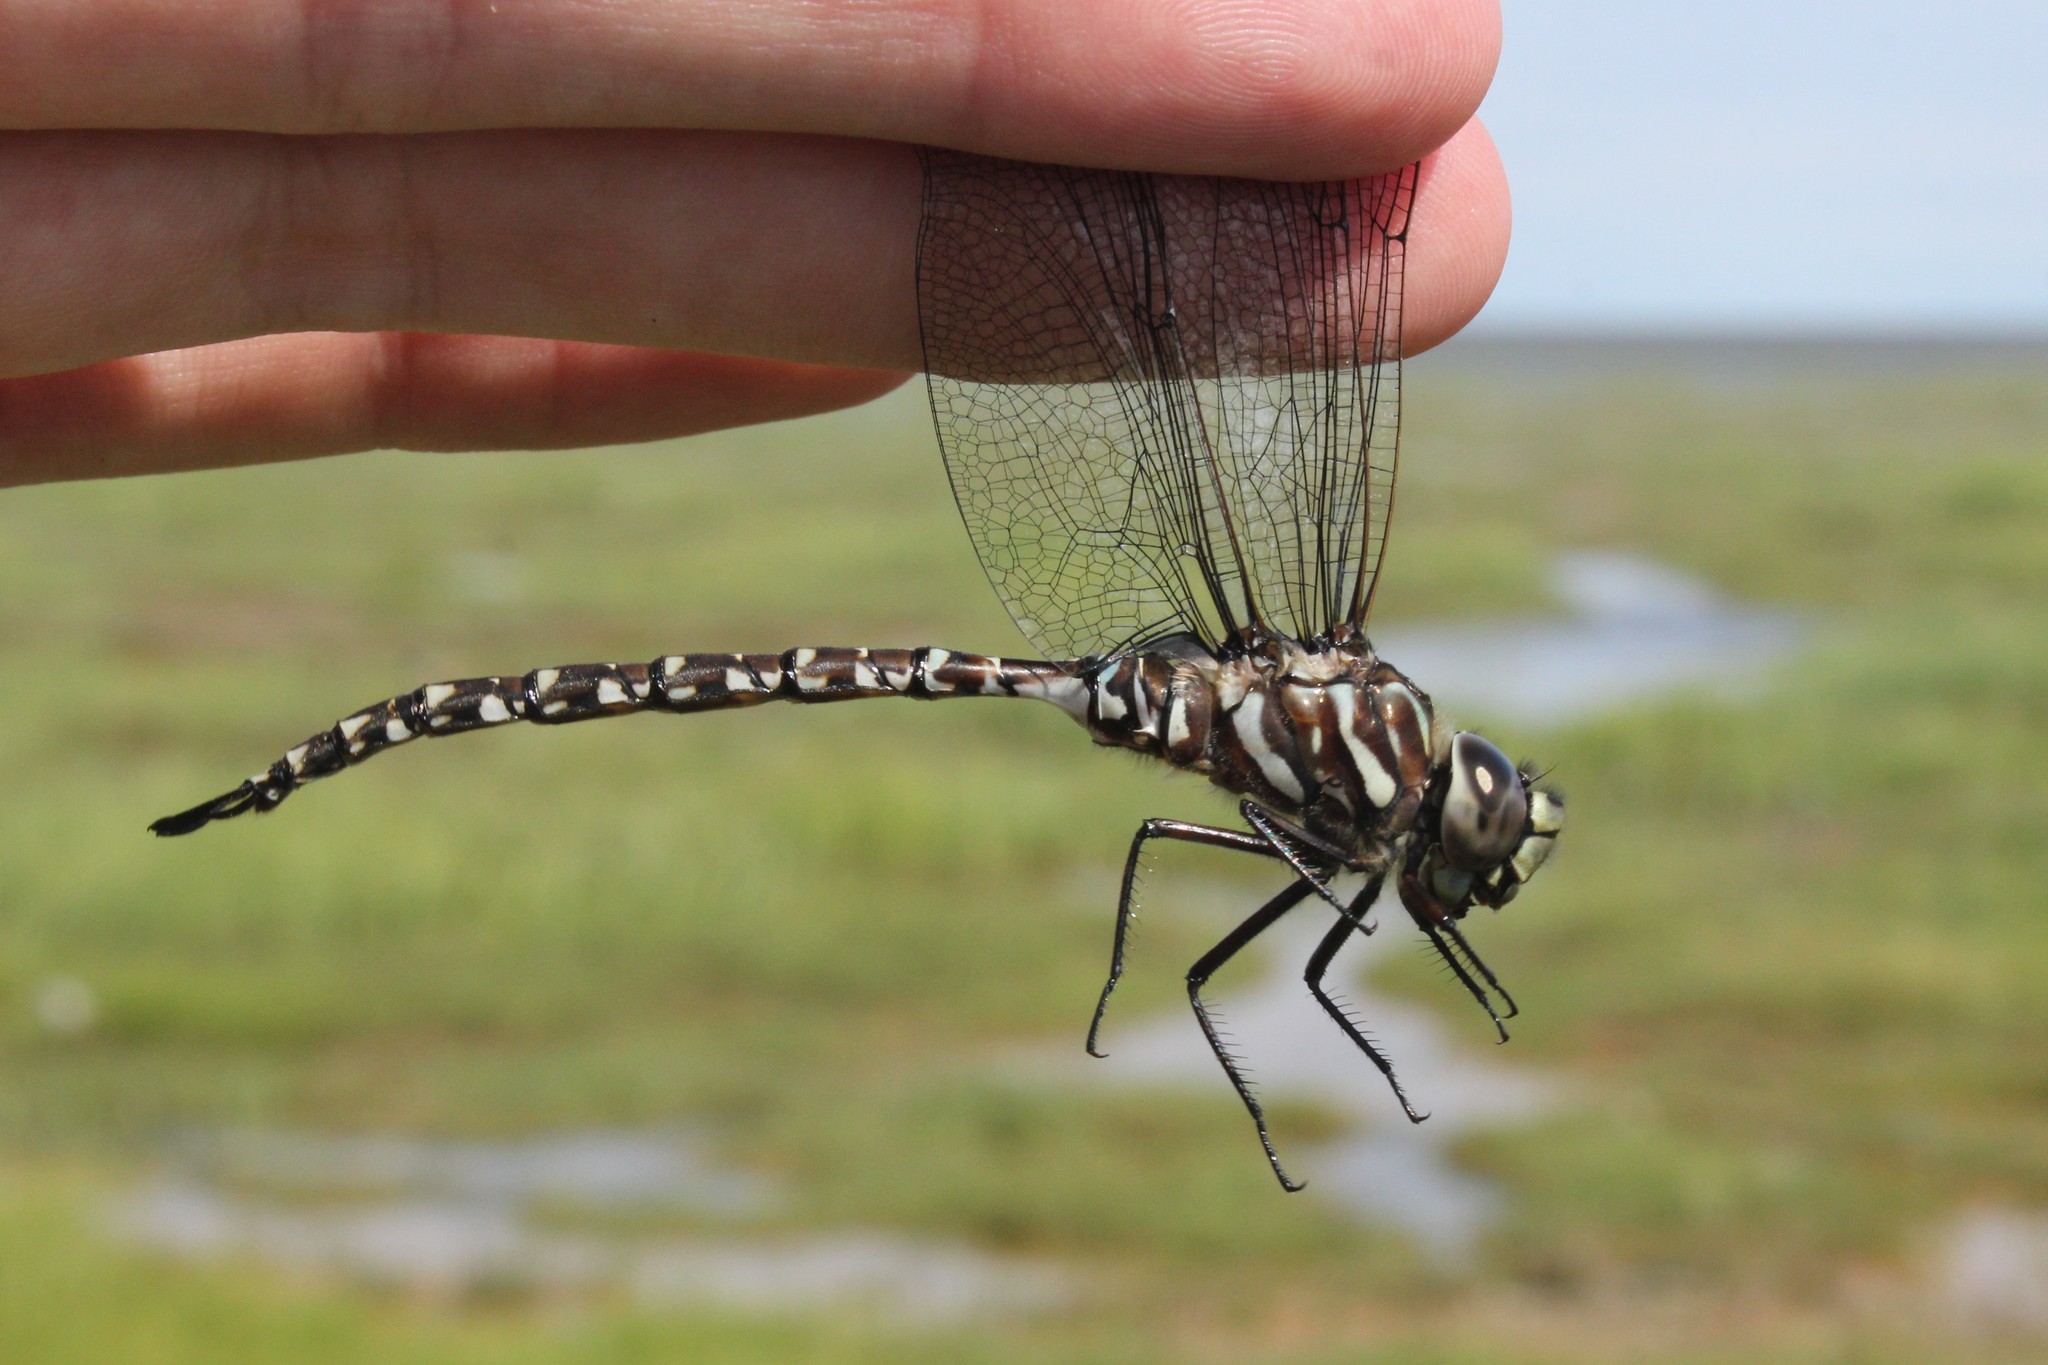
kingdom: Animalia
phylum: Arthropoda
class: Insecta
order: Odonata
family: Aeshnidae
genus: Aeshna
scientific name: Aeshna subarctica
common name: Subarctic darner
